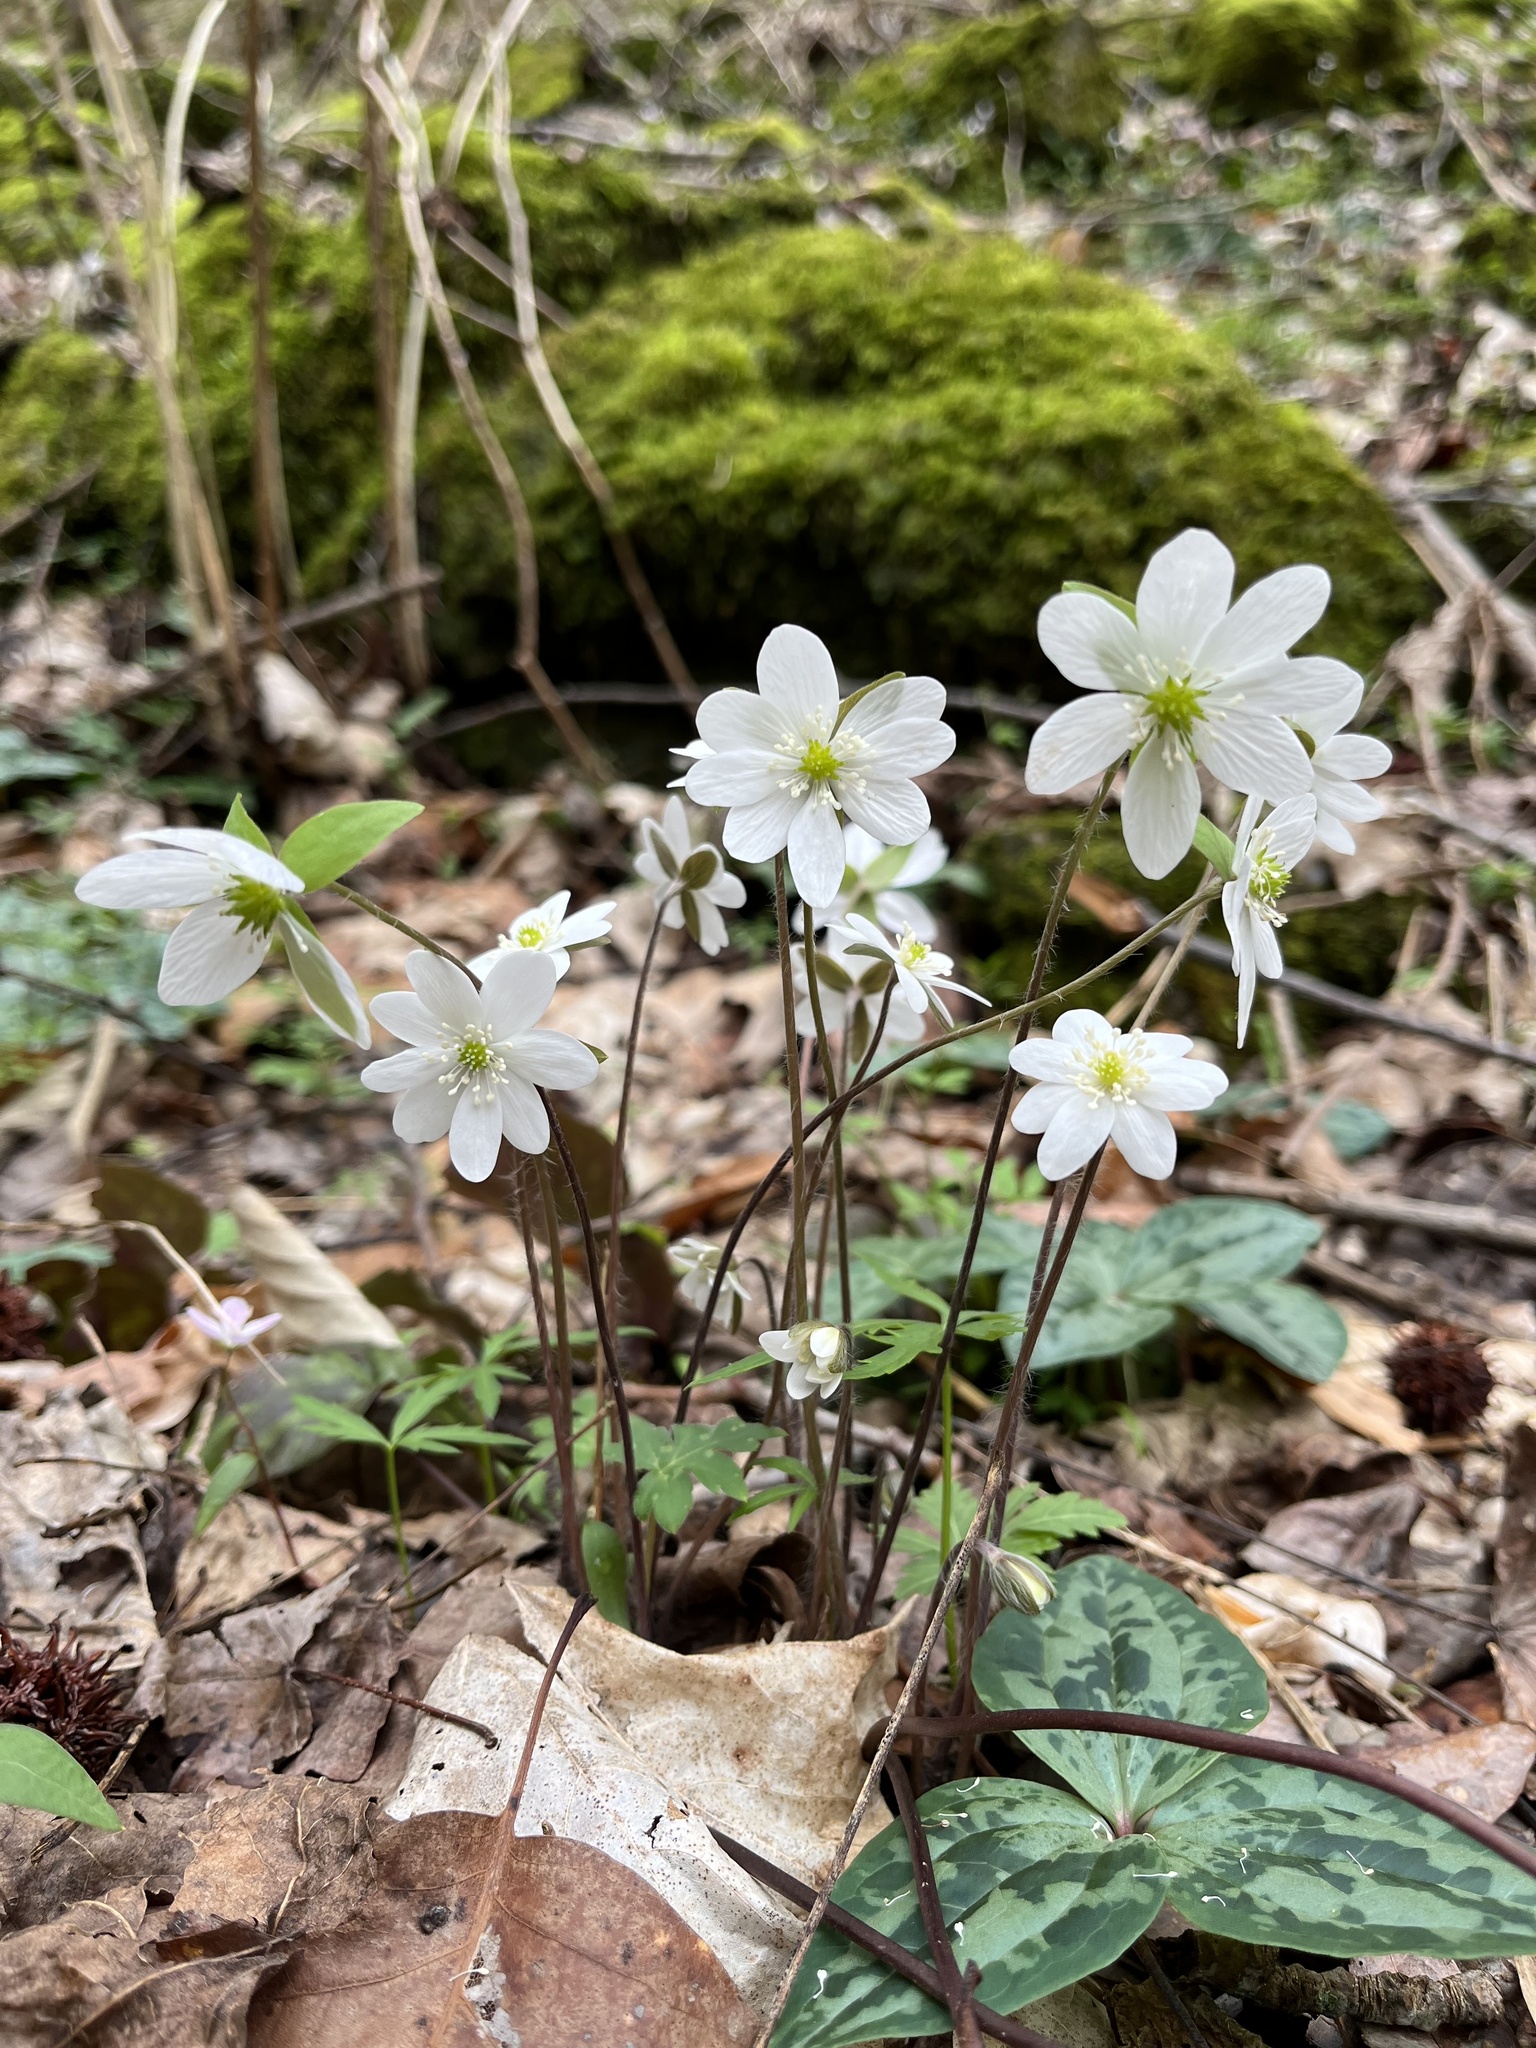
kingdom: Plantae
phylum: Tracheophyta
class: Magnoliopsida
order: Ranunculales
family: Ranunculaceae
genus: Hepatica
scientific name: Hepatica acutiloba
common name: Sharp-lobed hepatica
